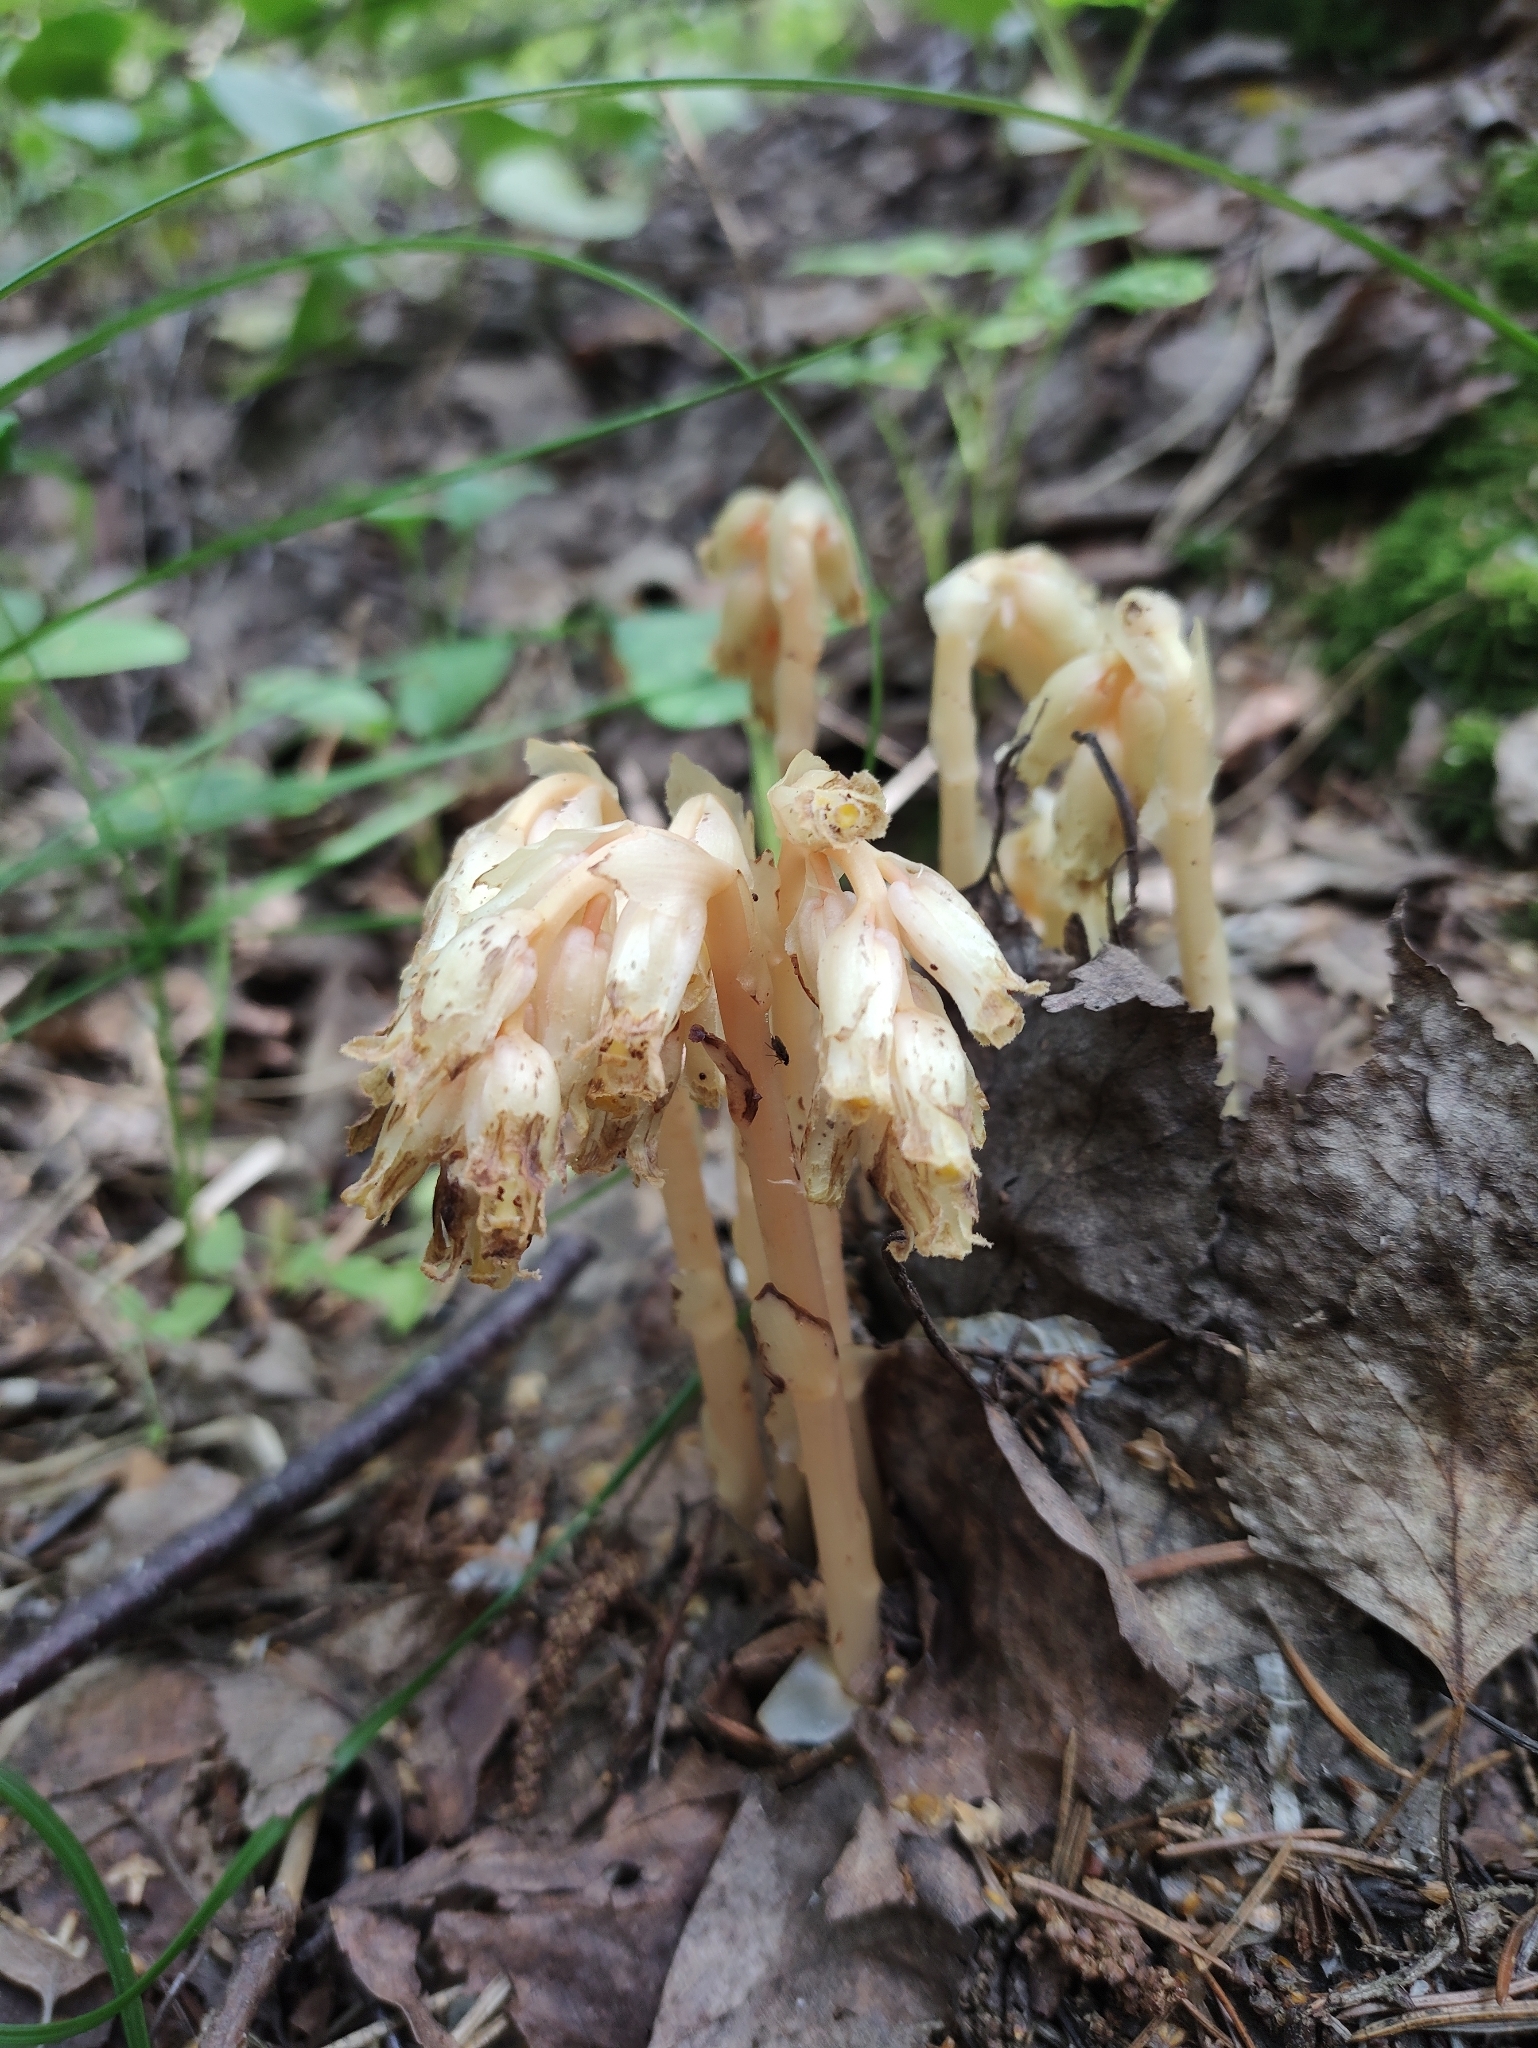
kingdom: Plantae
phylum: Tracheophyta
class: Magnoliopsida
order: Ericales
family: Ericaceae
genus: Hypopitys
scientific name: Hypopitys monotropa
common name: Yellow bird's-nest
